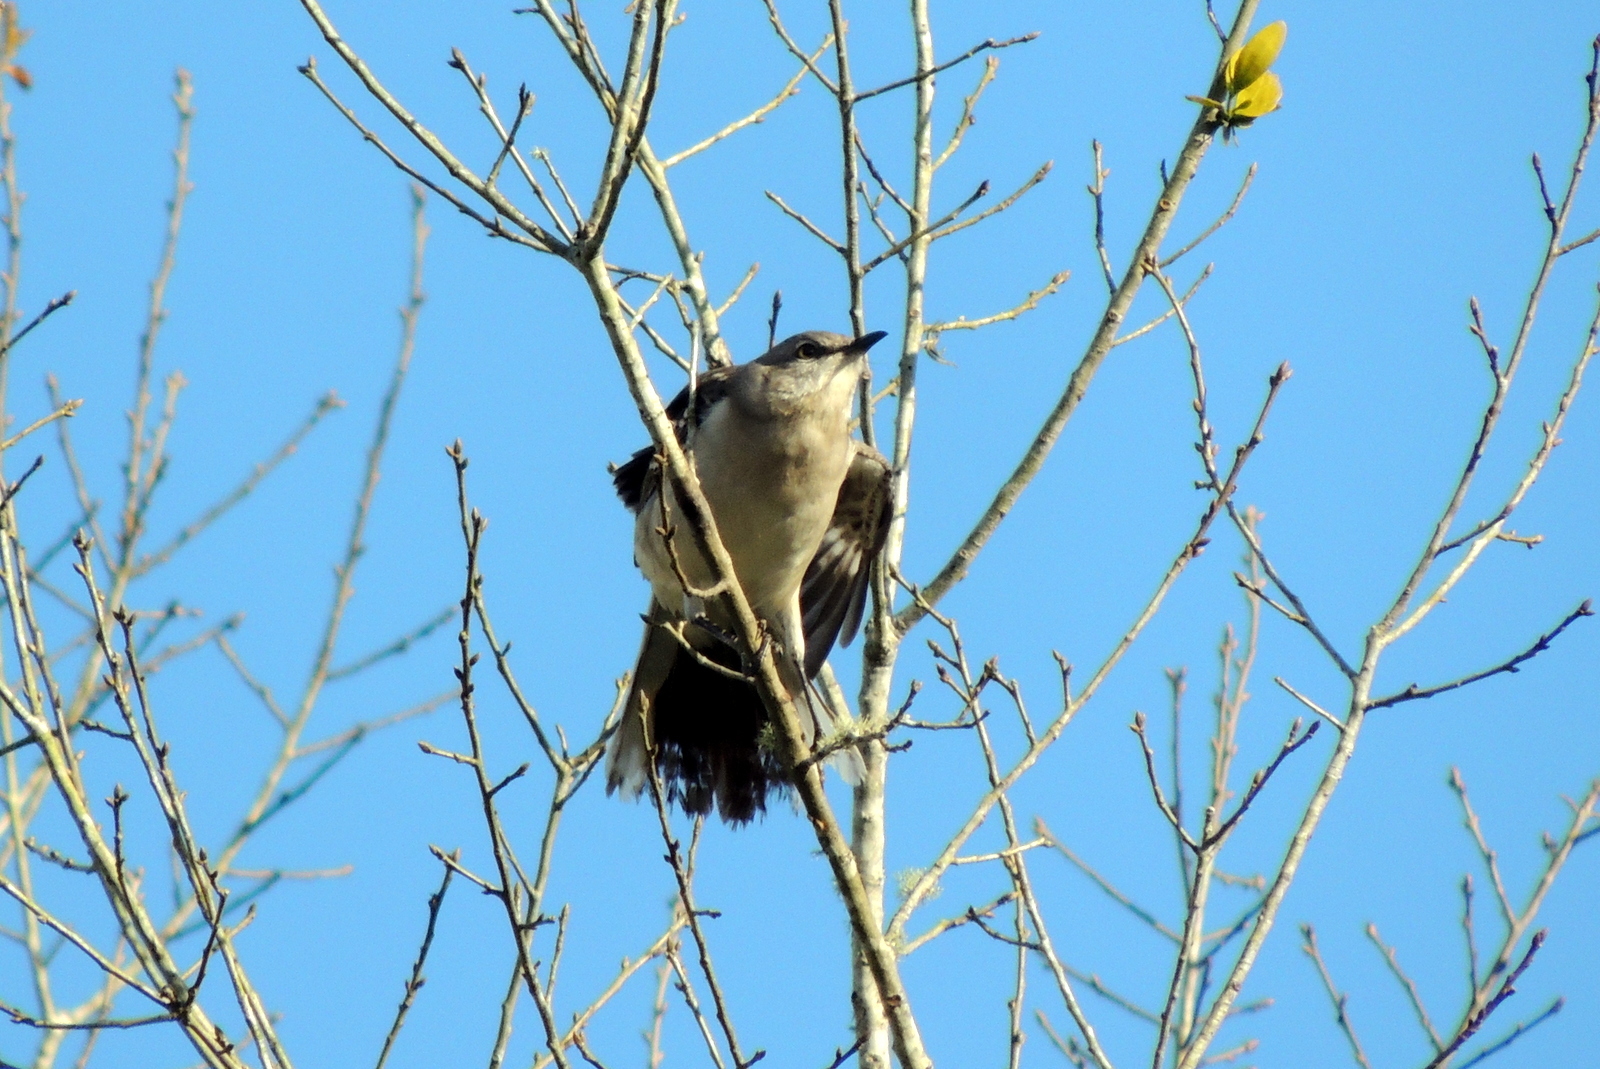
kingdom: Animalia
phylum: Chordata
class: Aves
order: Passeriformes
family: Mimidae
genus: Mimus
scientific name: Mimus polyglottos
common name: Northern mockingbird
